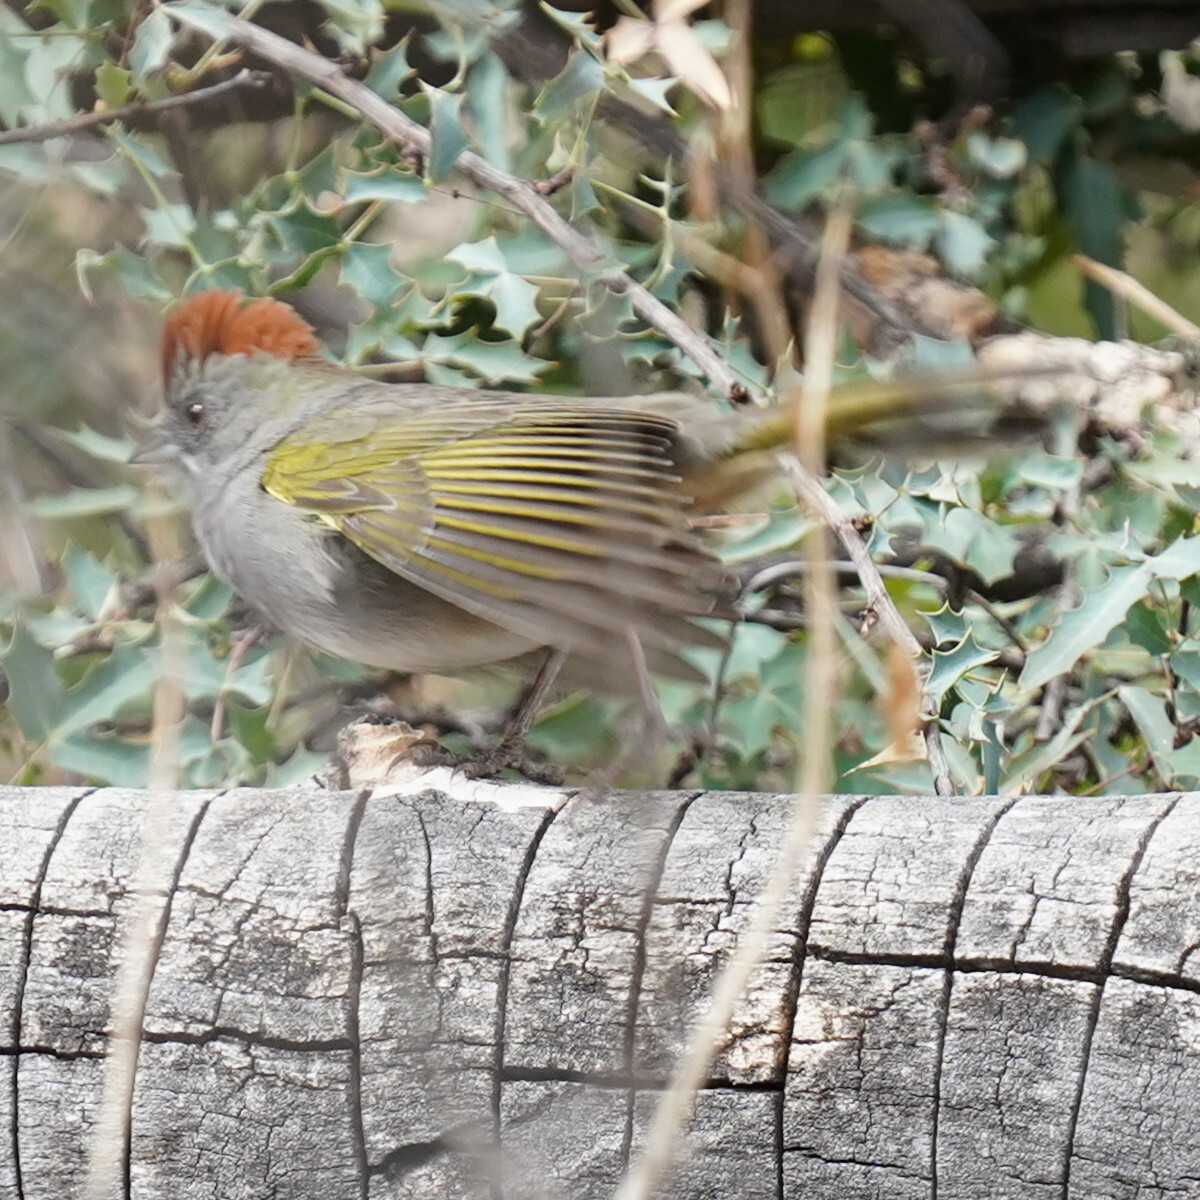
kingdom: Animalia
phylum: Chordata
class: Aves
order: Passeriformes
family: Passerellidae
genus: Pipilo
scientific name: Pipilo chlorurus
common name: Green-tailed towhee
